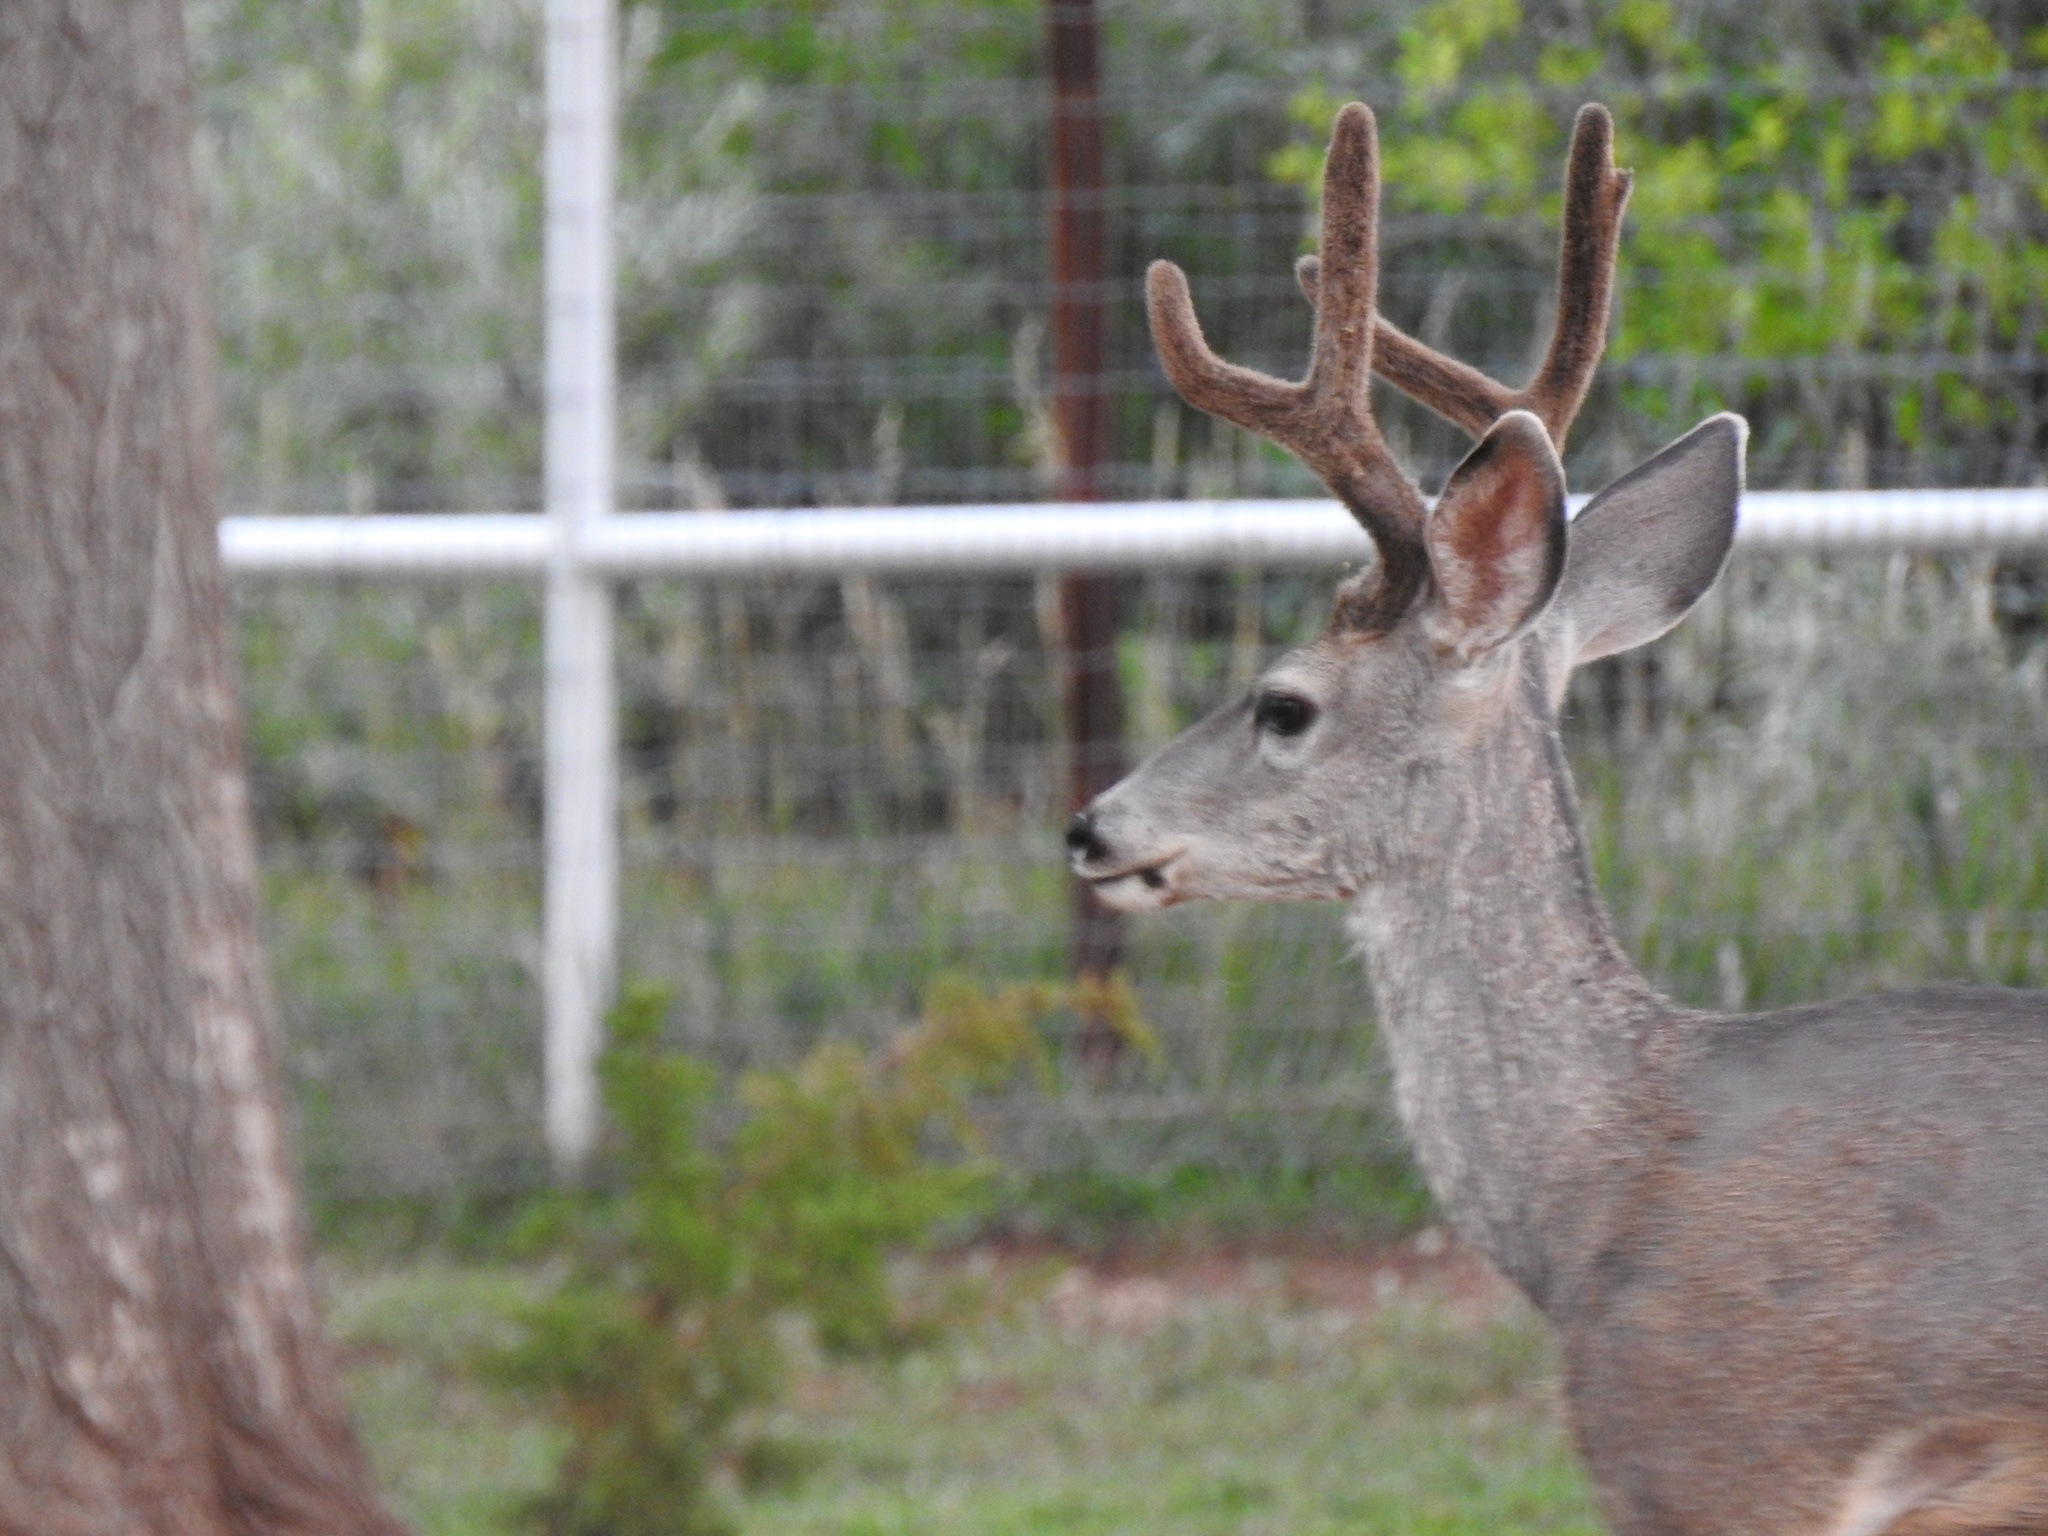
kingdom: Animalia
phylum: Chordata
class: Mammalia
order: Artiodactyla
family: Cervidae
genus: Odocoileus
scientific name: Odocoileus hemionus
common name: Mule deer
